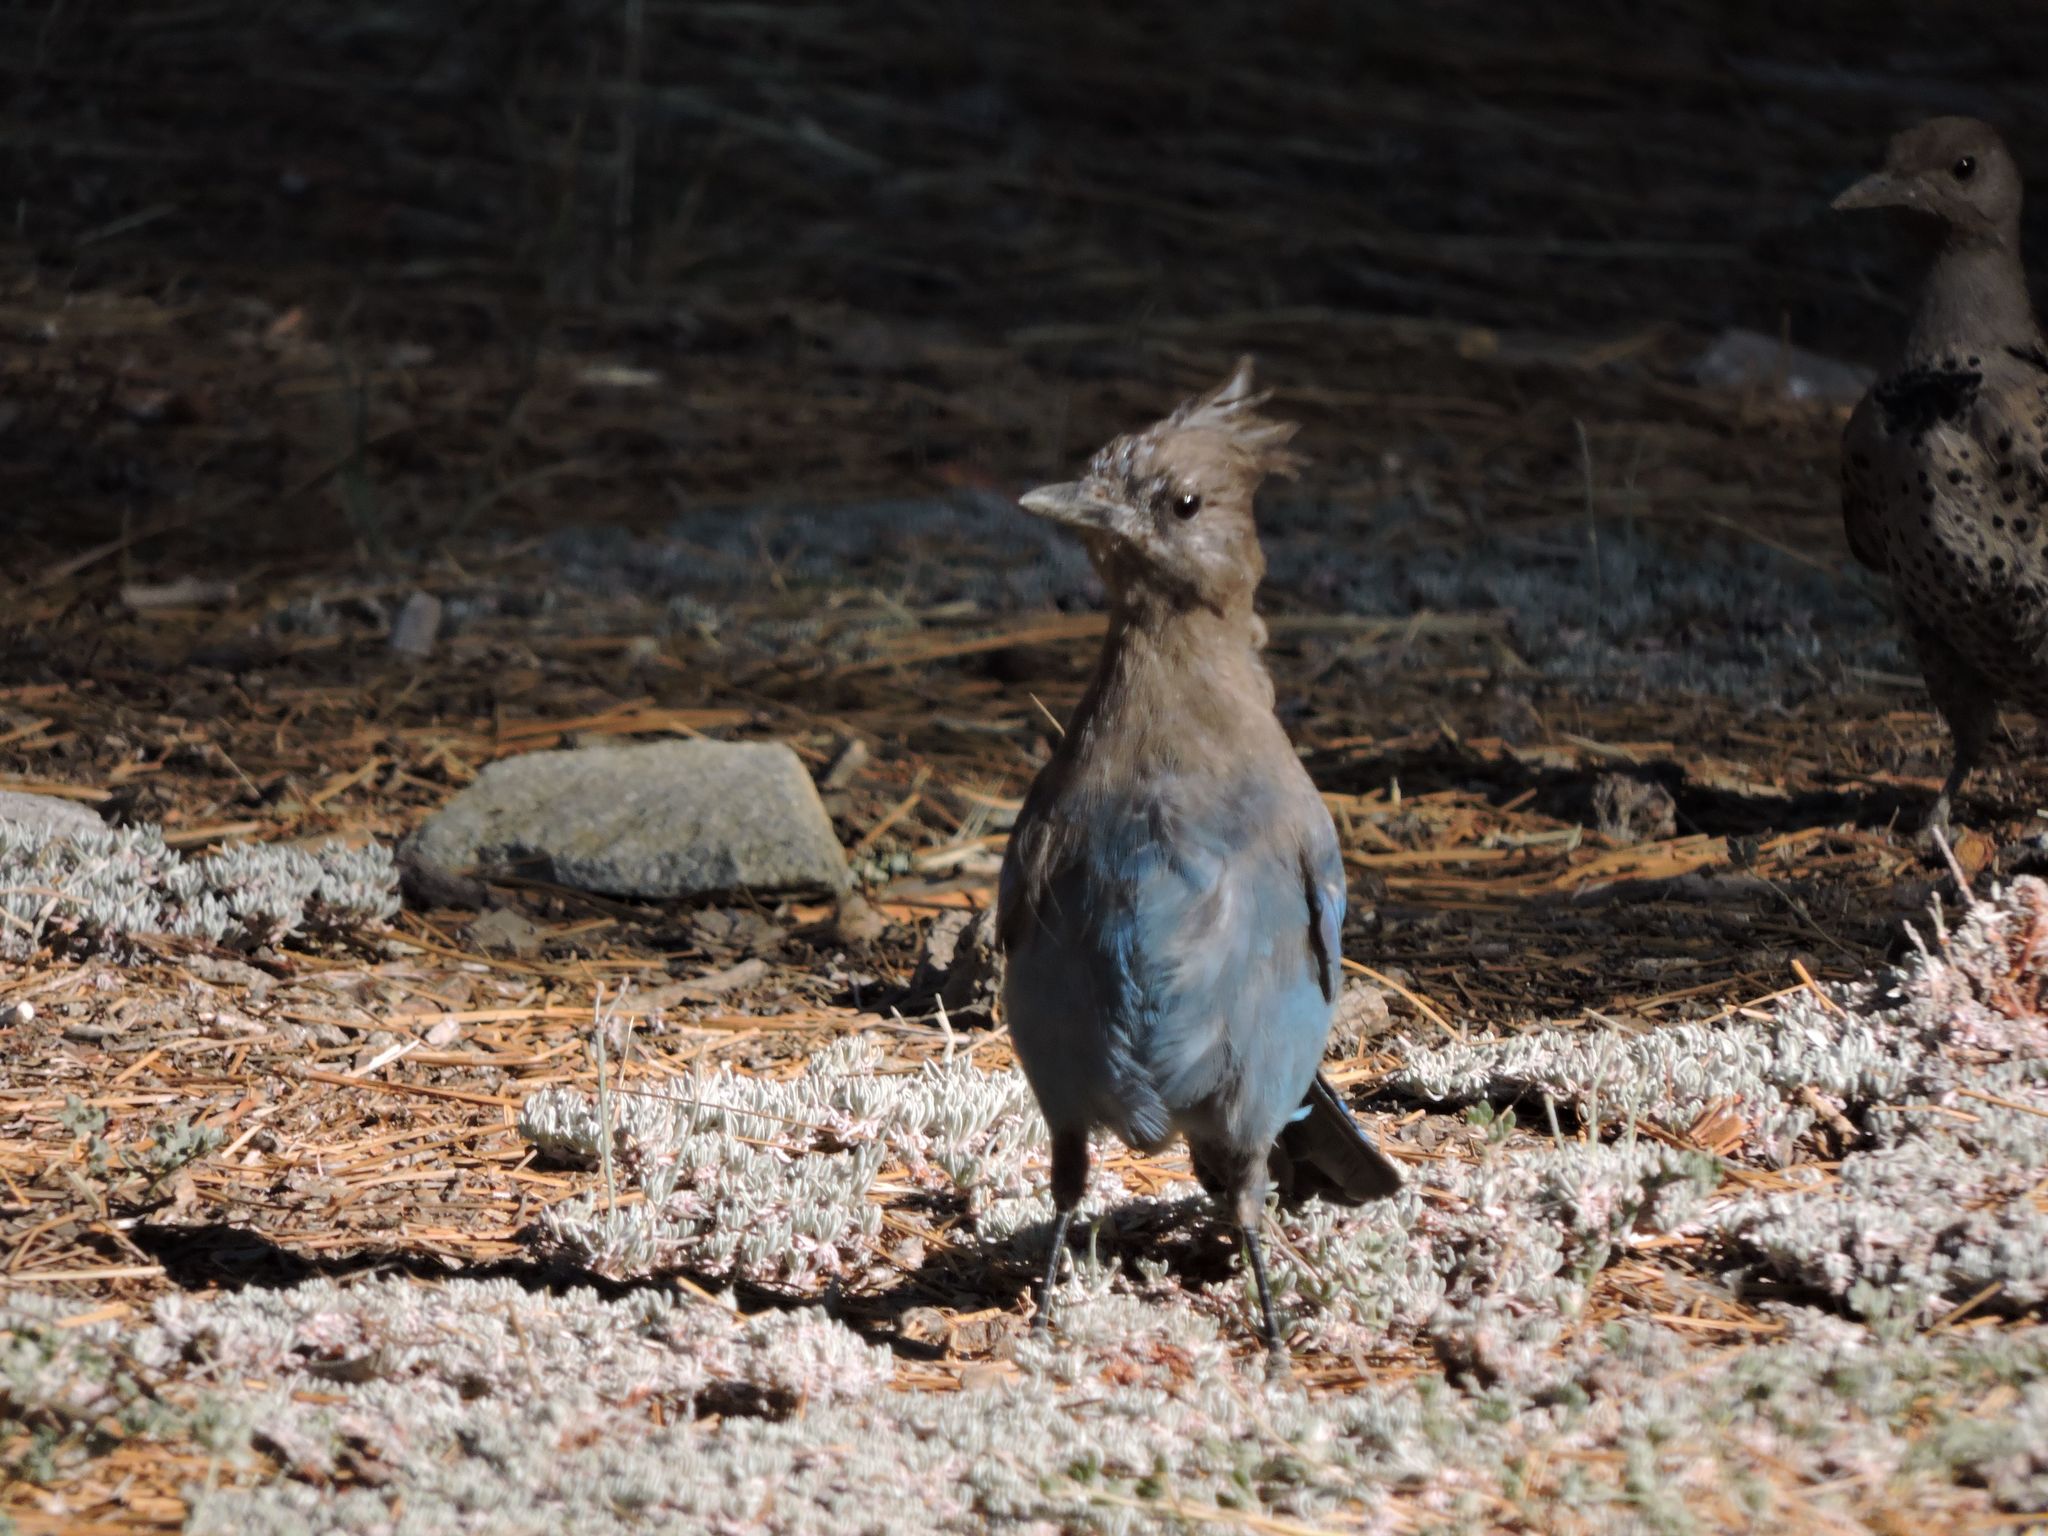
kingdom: Animalia
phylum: Chordata
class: Aves
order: Passeriformes
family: Corvidae
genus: Cyanocitta
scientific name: Cyanocitta stelleri
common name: Steller's jay
